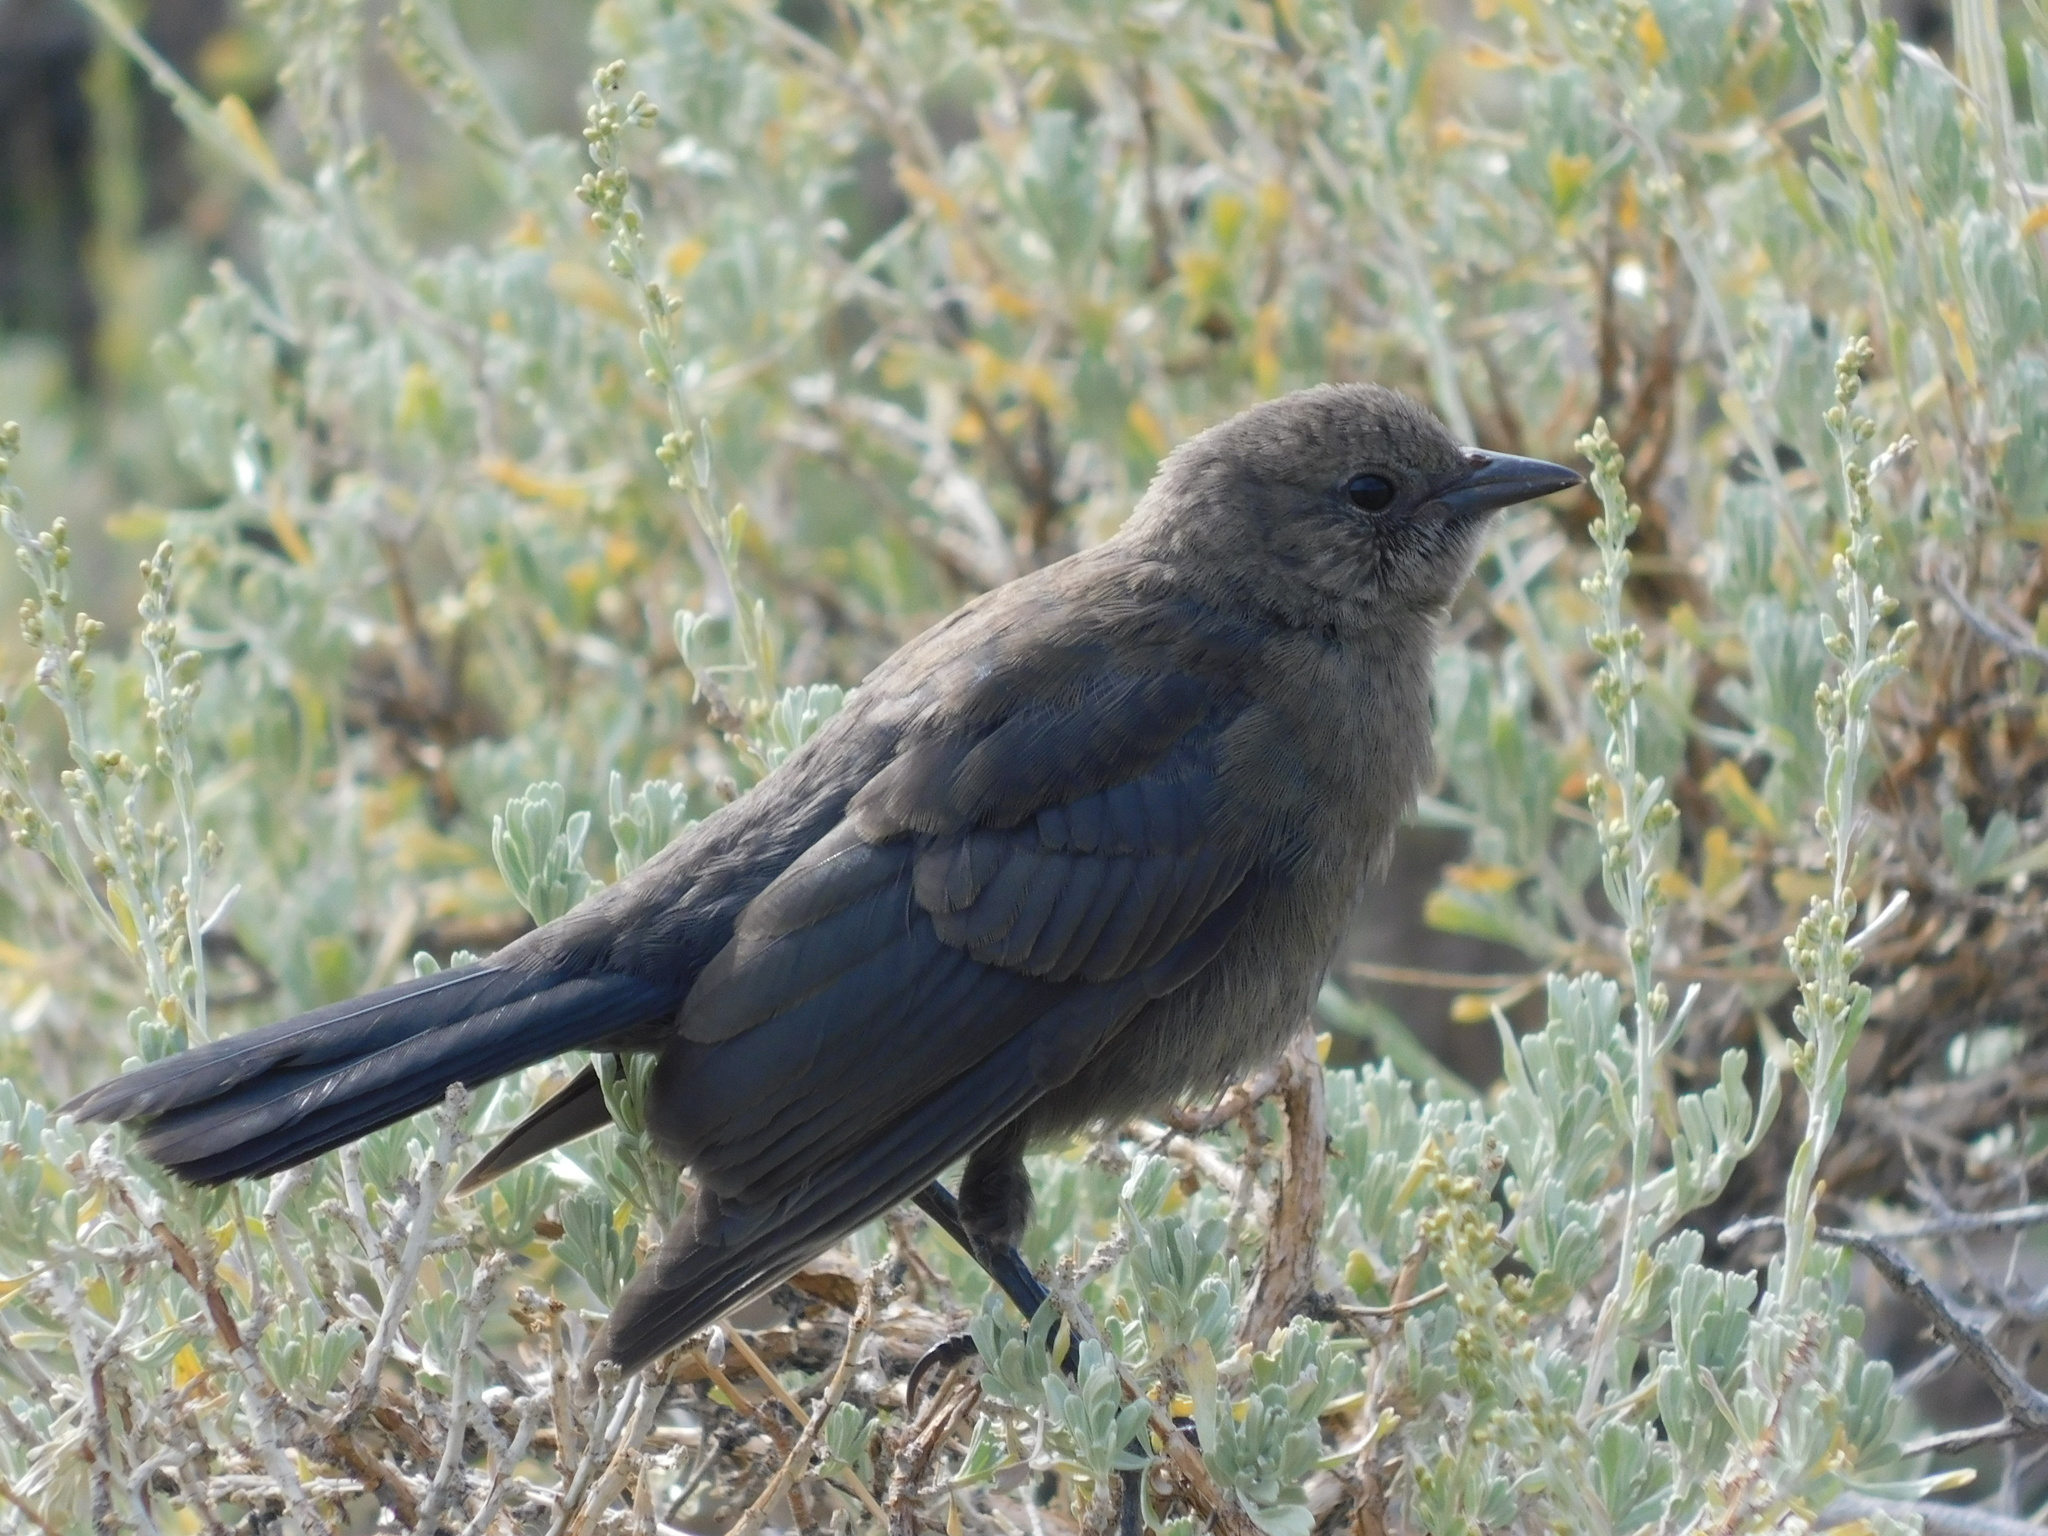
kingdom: Animalia
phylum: Chordata
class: Aves
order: Passeriformes
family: Icteridae
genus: Euphagus
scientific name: Euphagus cyanocephalus
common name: Brewer's blackbird
